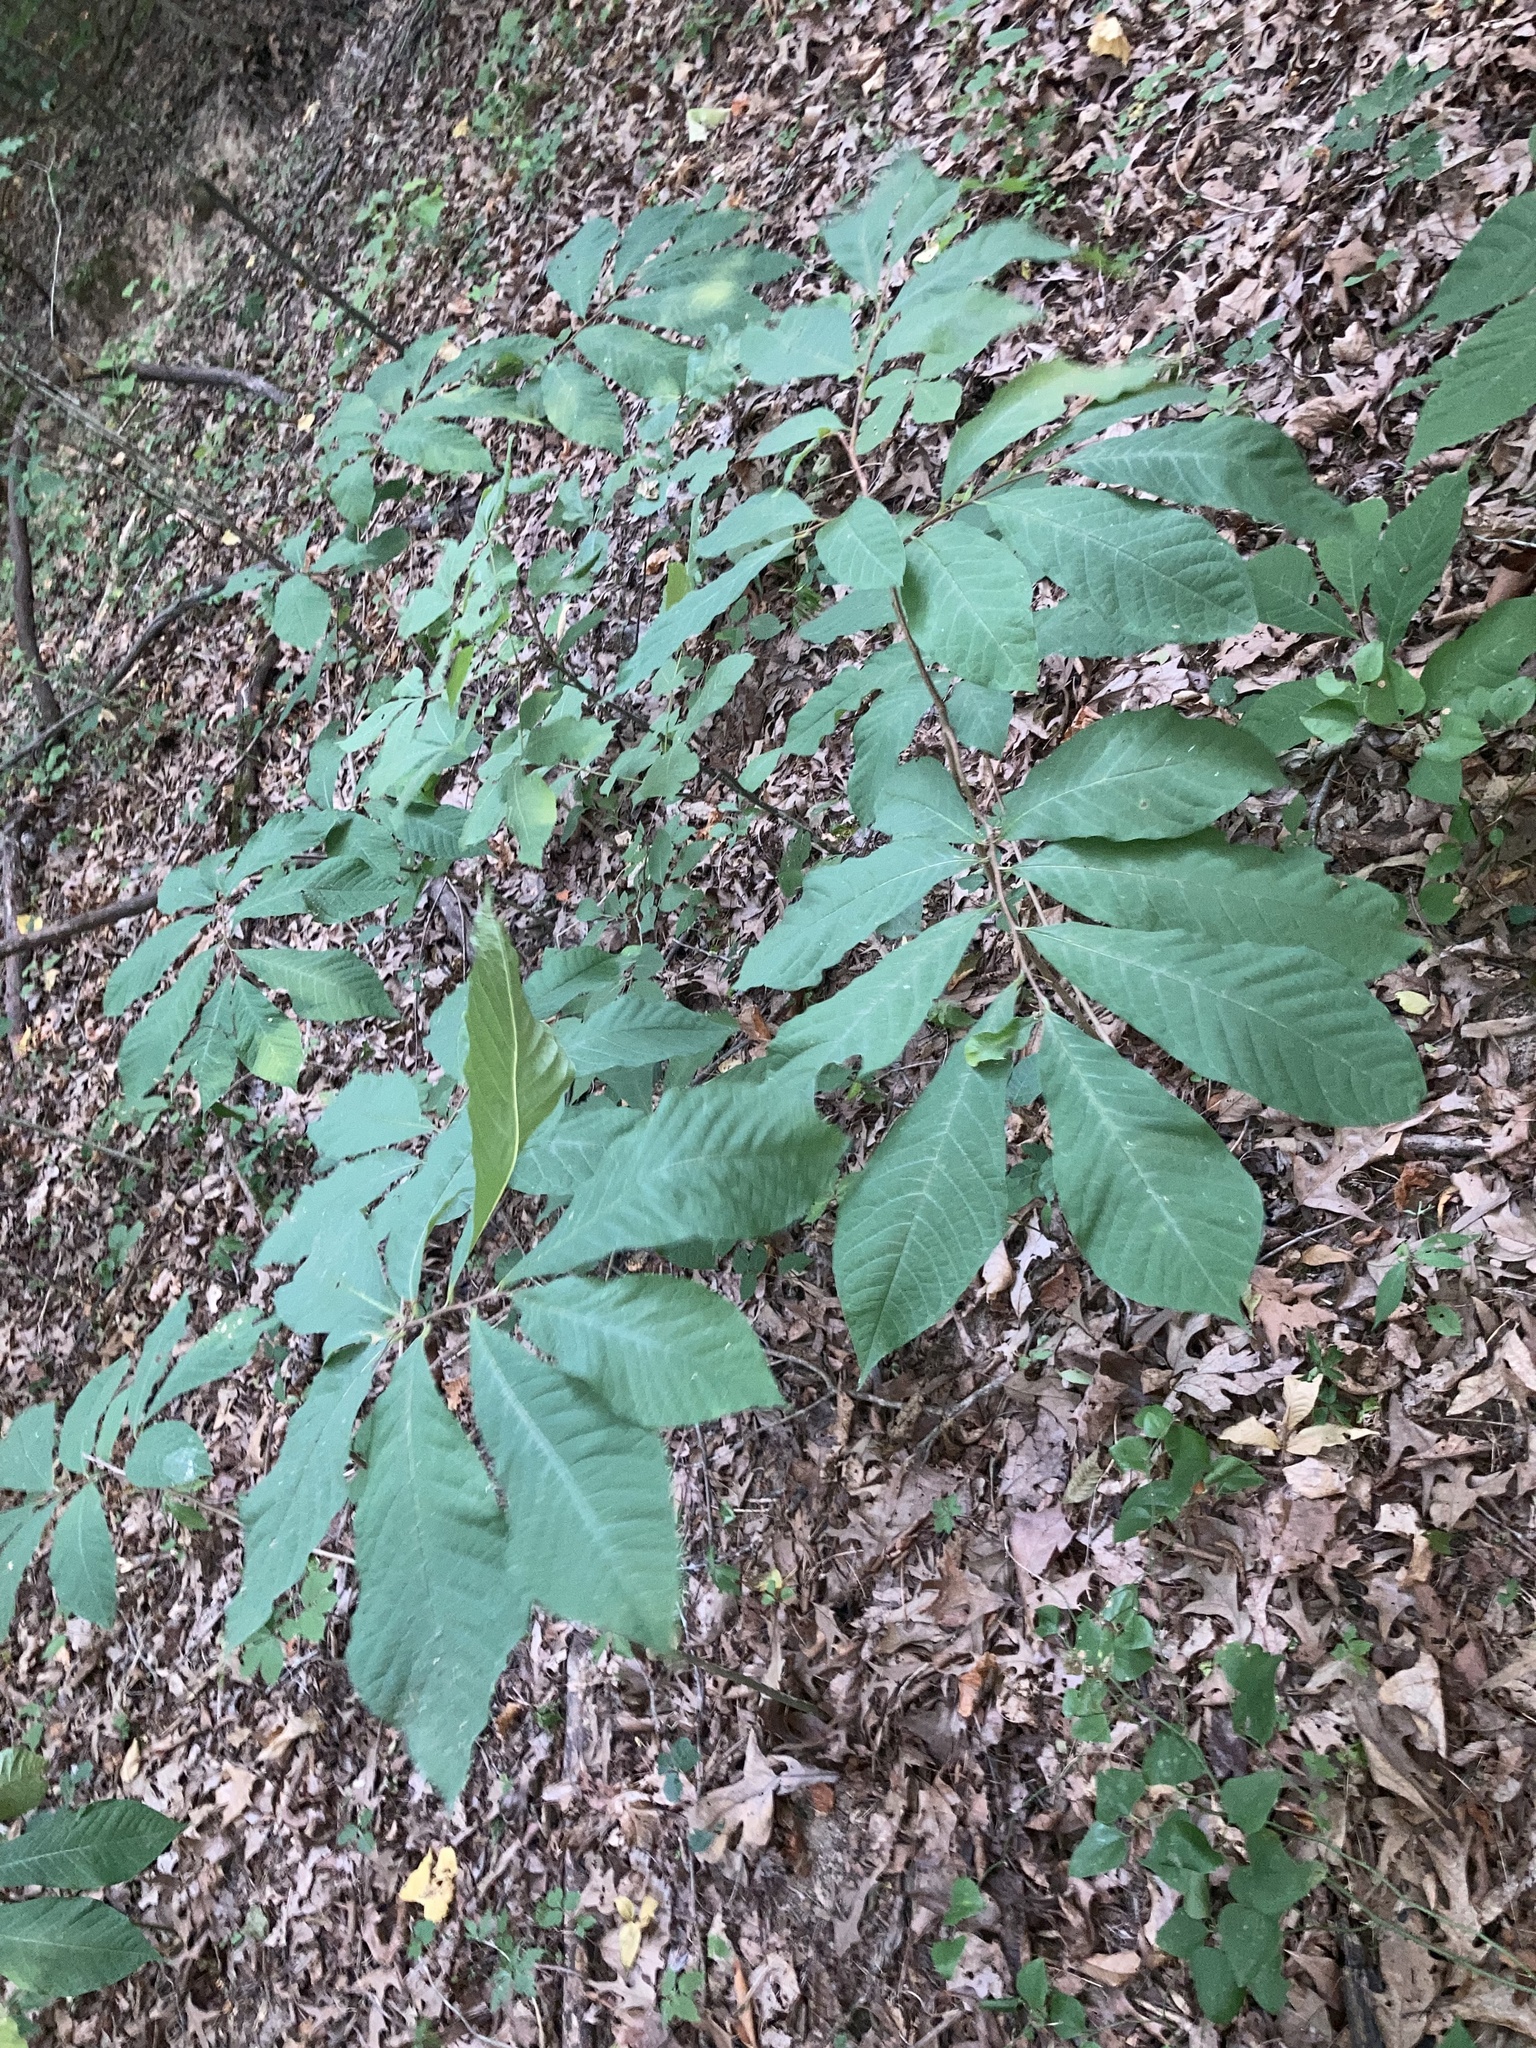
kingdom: Plantae
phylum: Tracheophyta
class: Magnoliopsida
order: Magnoliales
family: Annonaceae
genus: Asimina
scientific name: Asimina triloba
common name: Dog-banana
